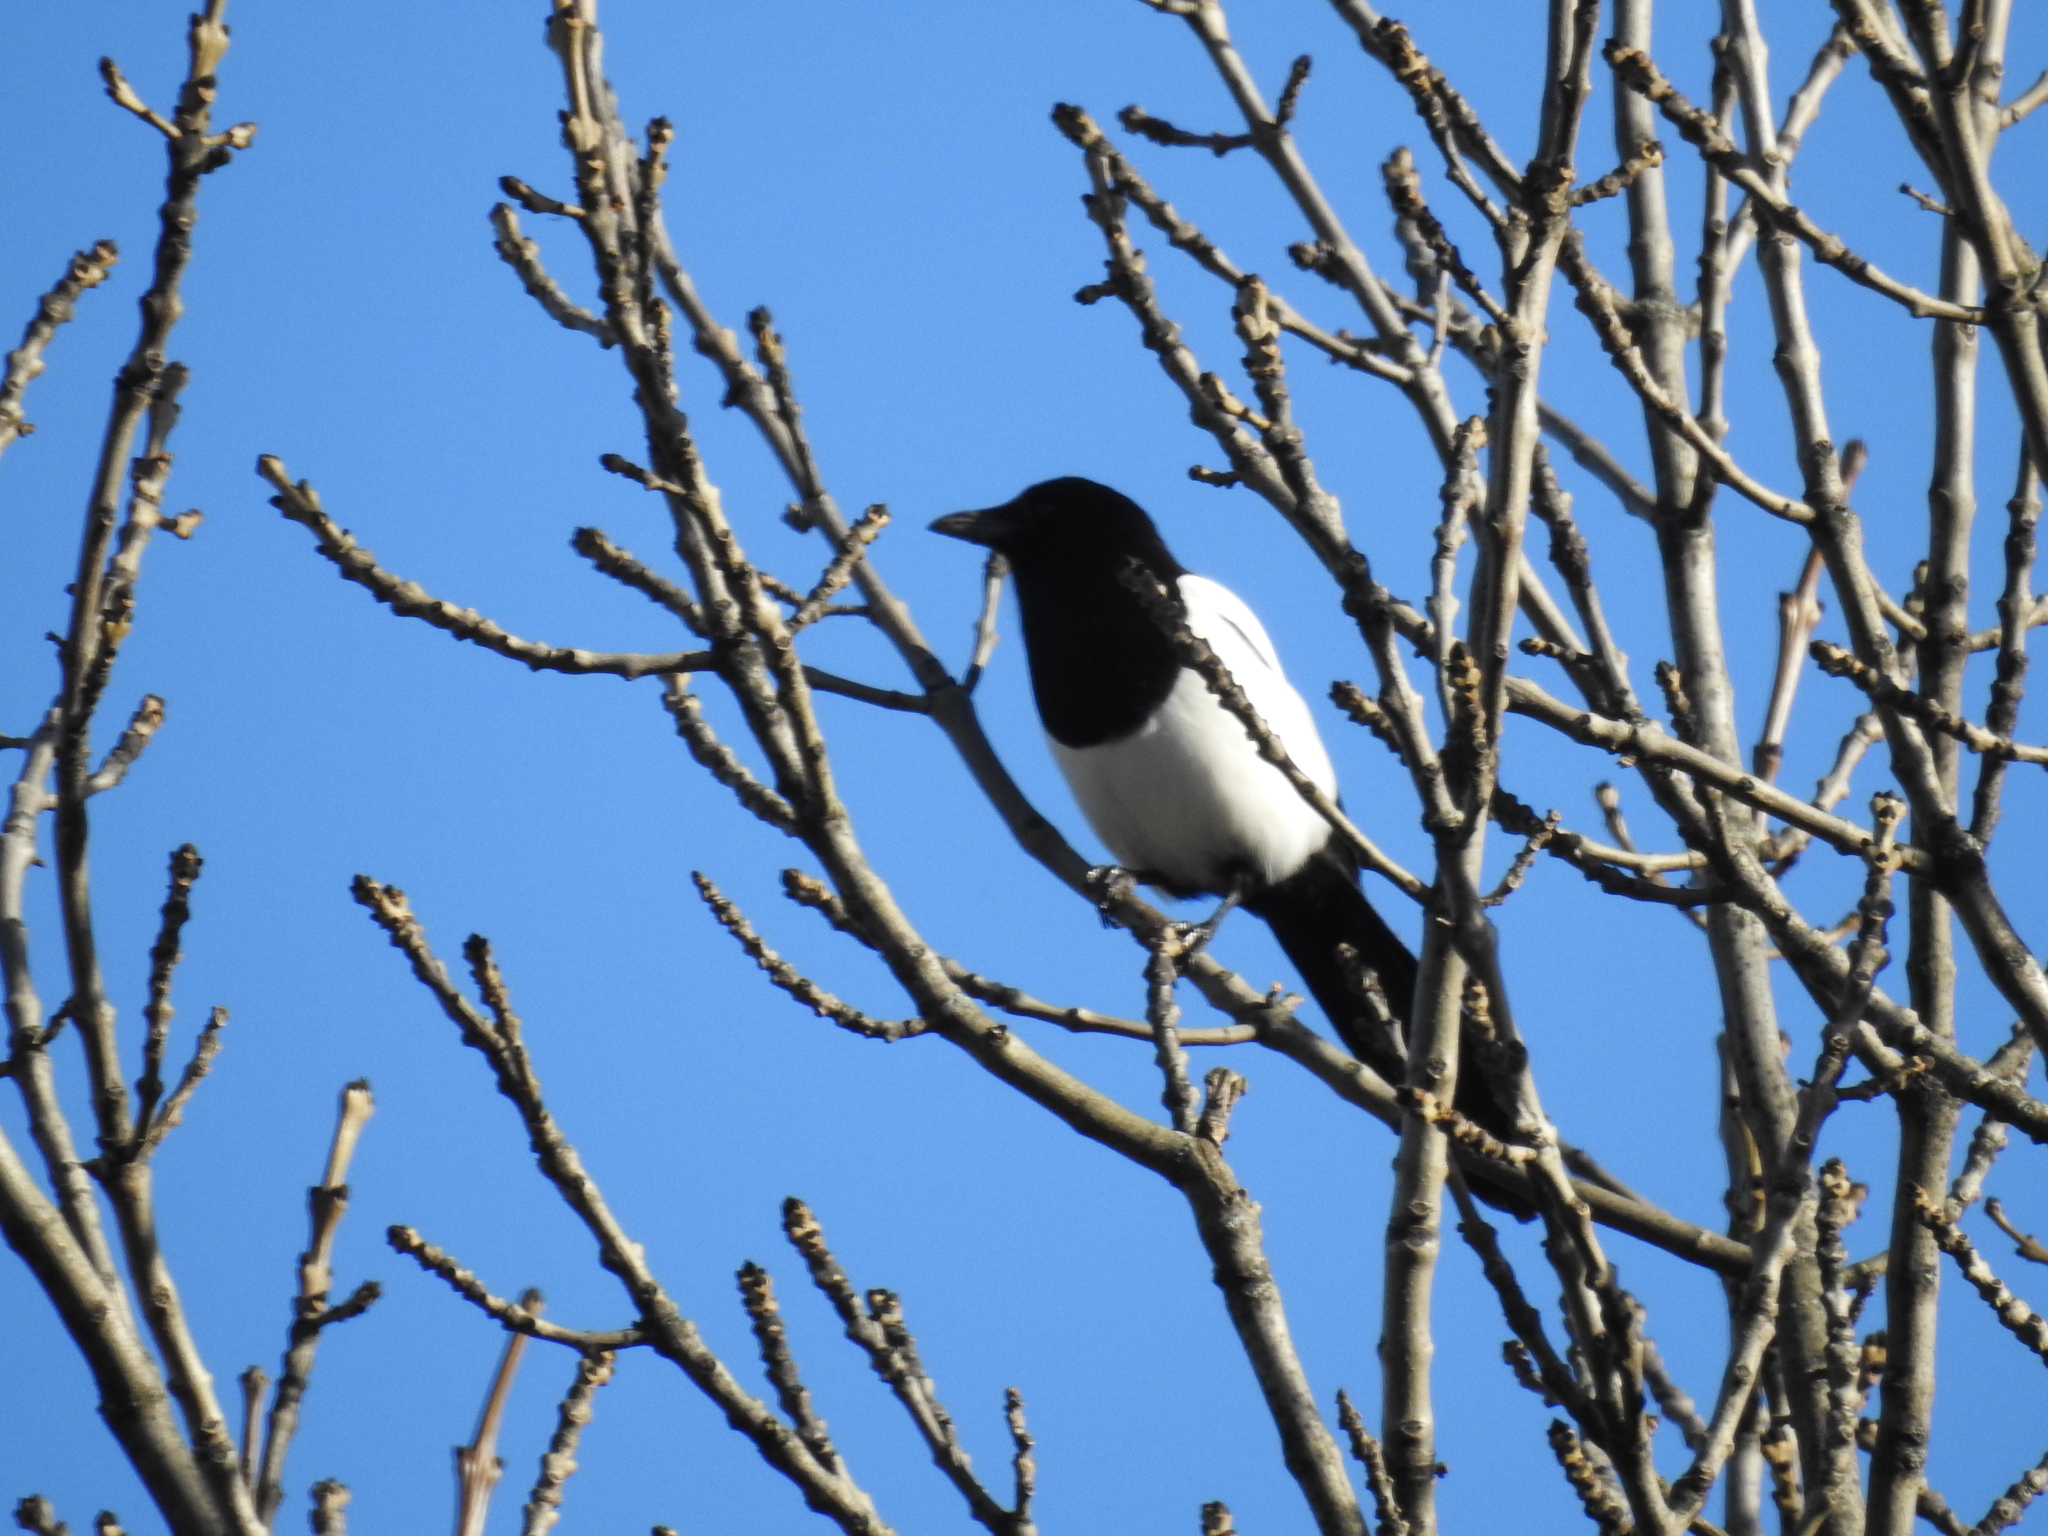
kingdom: Animalia
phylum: Chordata
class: Aves
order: Passeriformes
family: Corvidae
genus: Pica
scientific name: Pica pica
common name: Eurasian magpie
